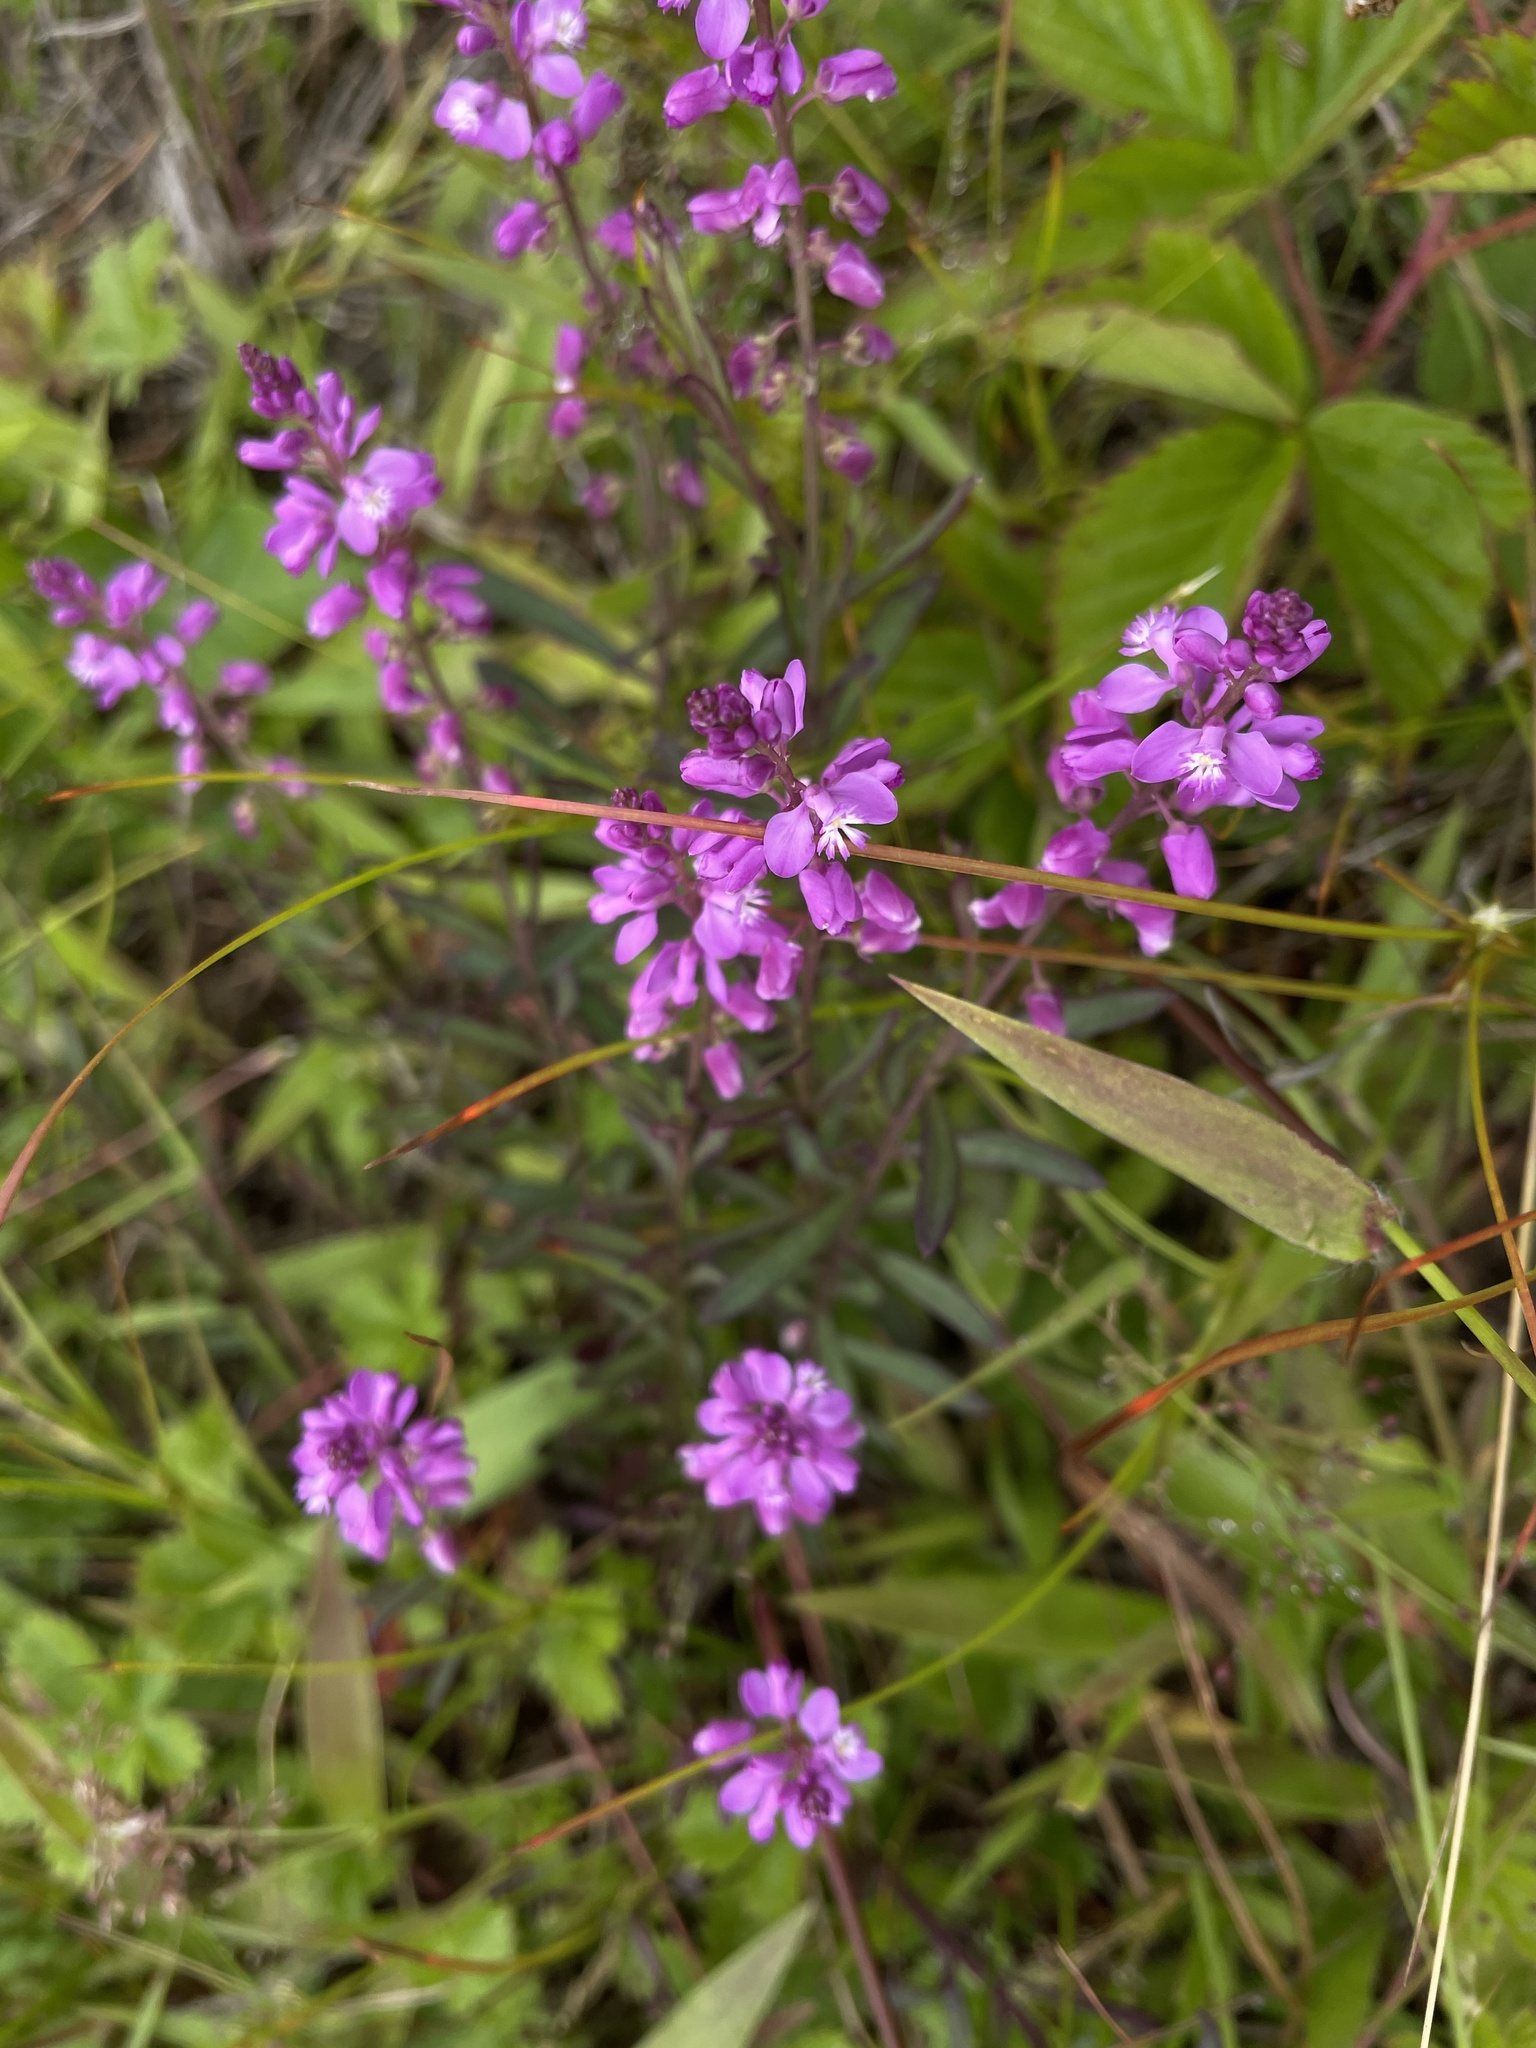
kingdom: Plantae
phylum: Tracheophyta
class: Magnoliopsida
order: Fabales
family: Polygalaceae
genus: Polygala
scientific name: Polygala polygama
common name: Bitter milkwort
